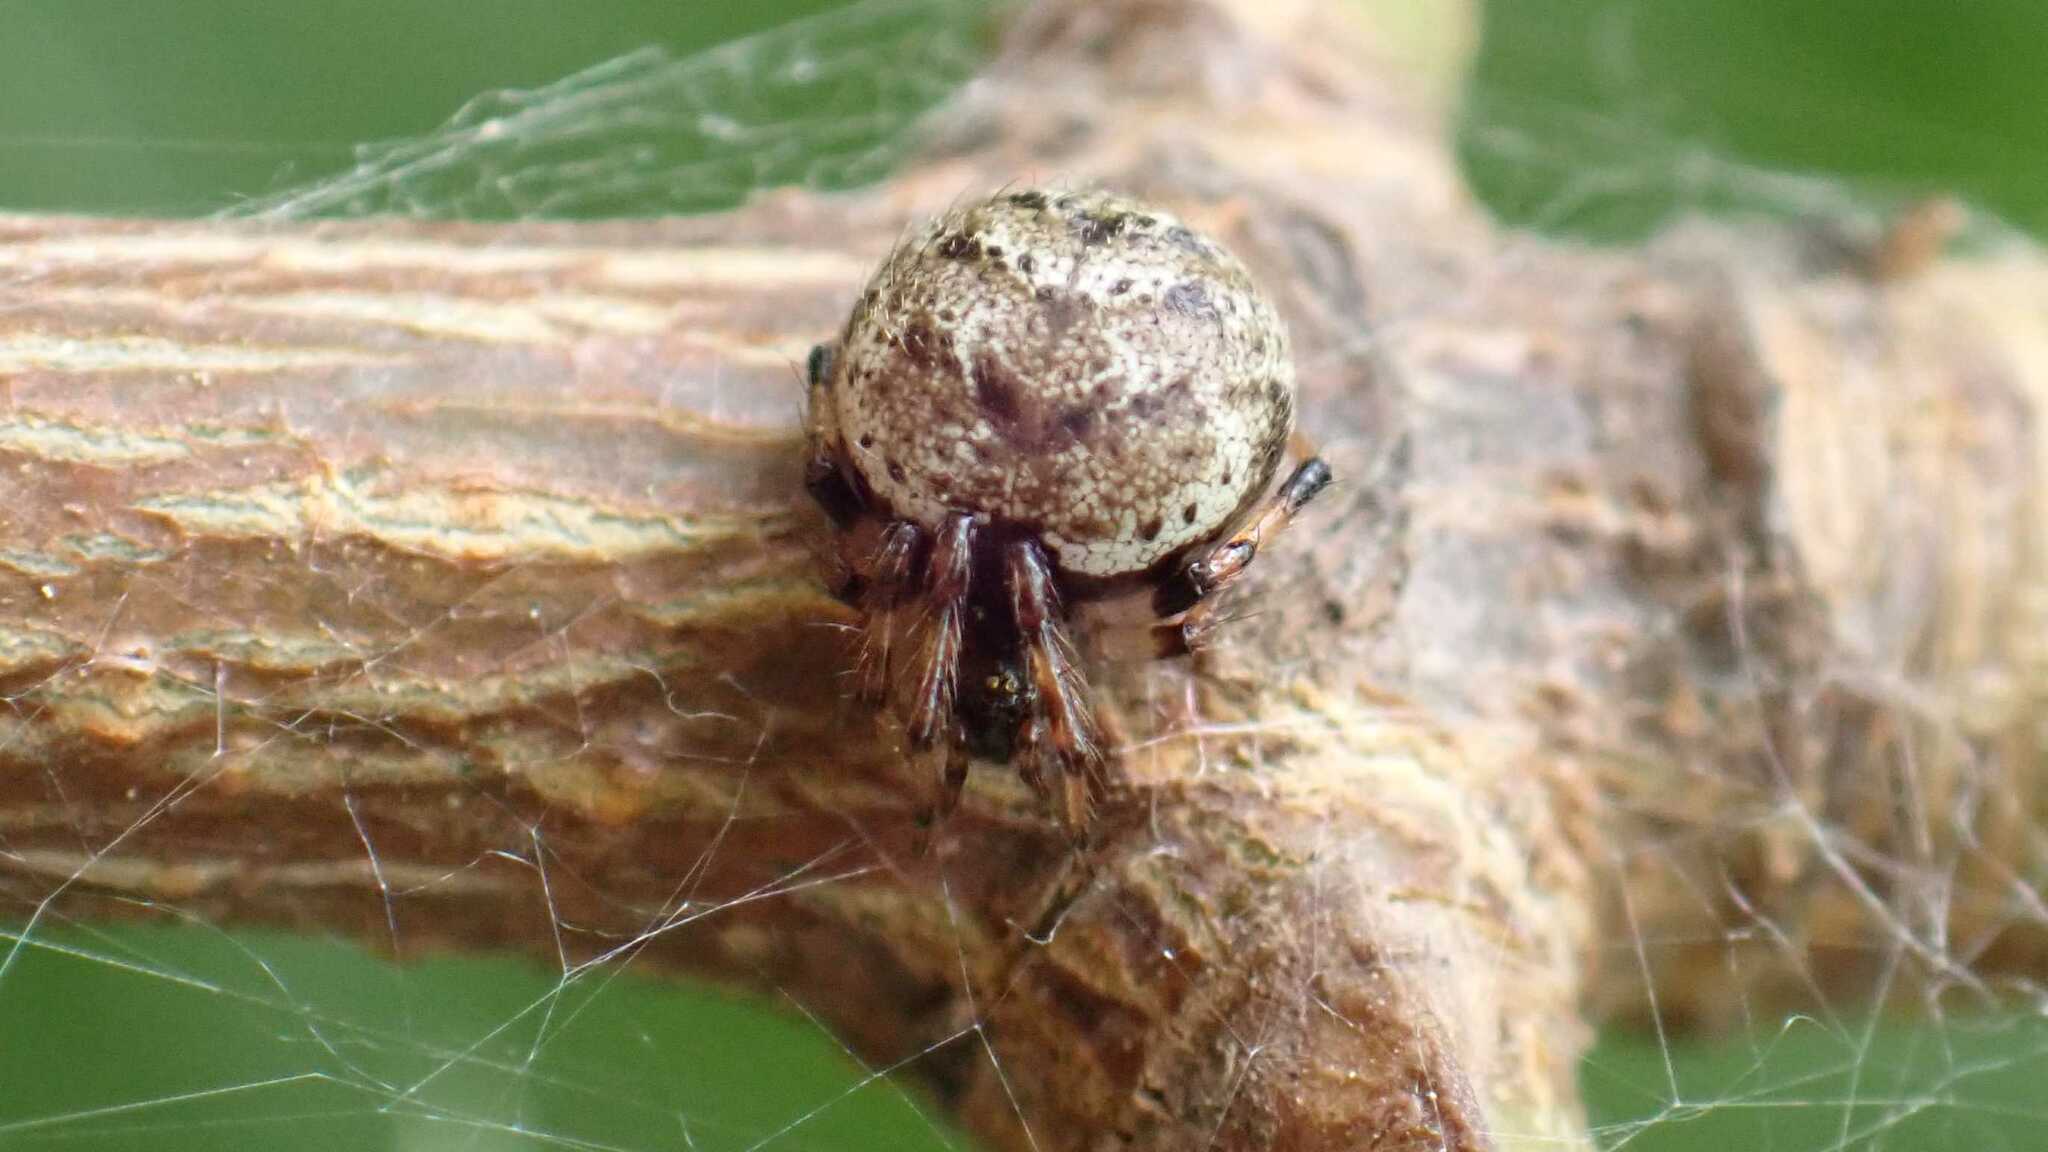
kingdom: Animalia
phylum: Arthropoda
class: Arachnida
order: Araneae
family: Theridiidae
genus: Dipoena
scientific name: Dipoena melanogaster
